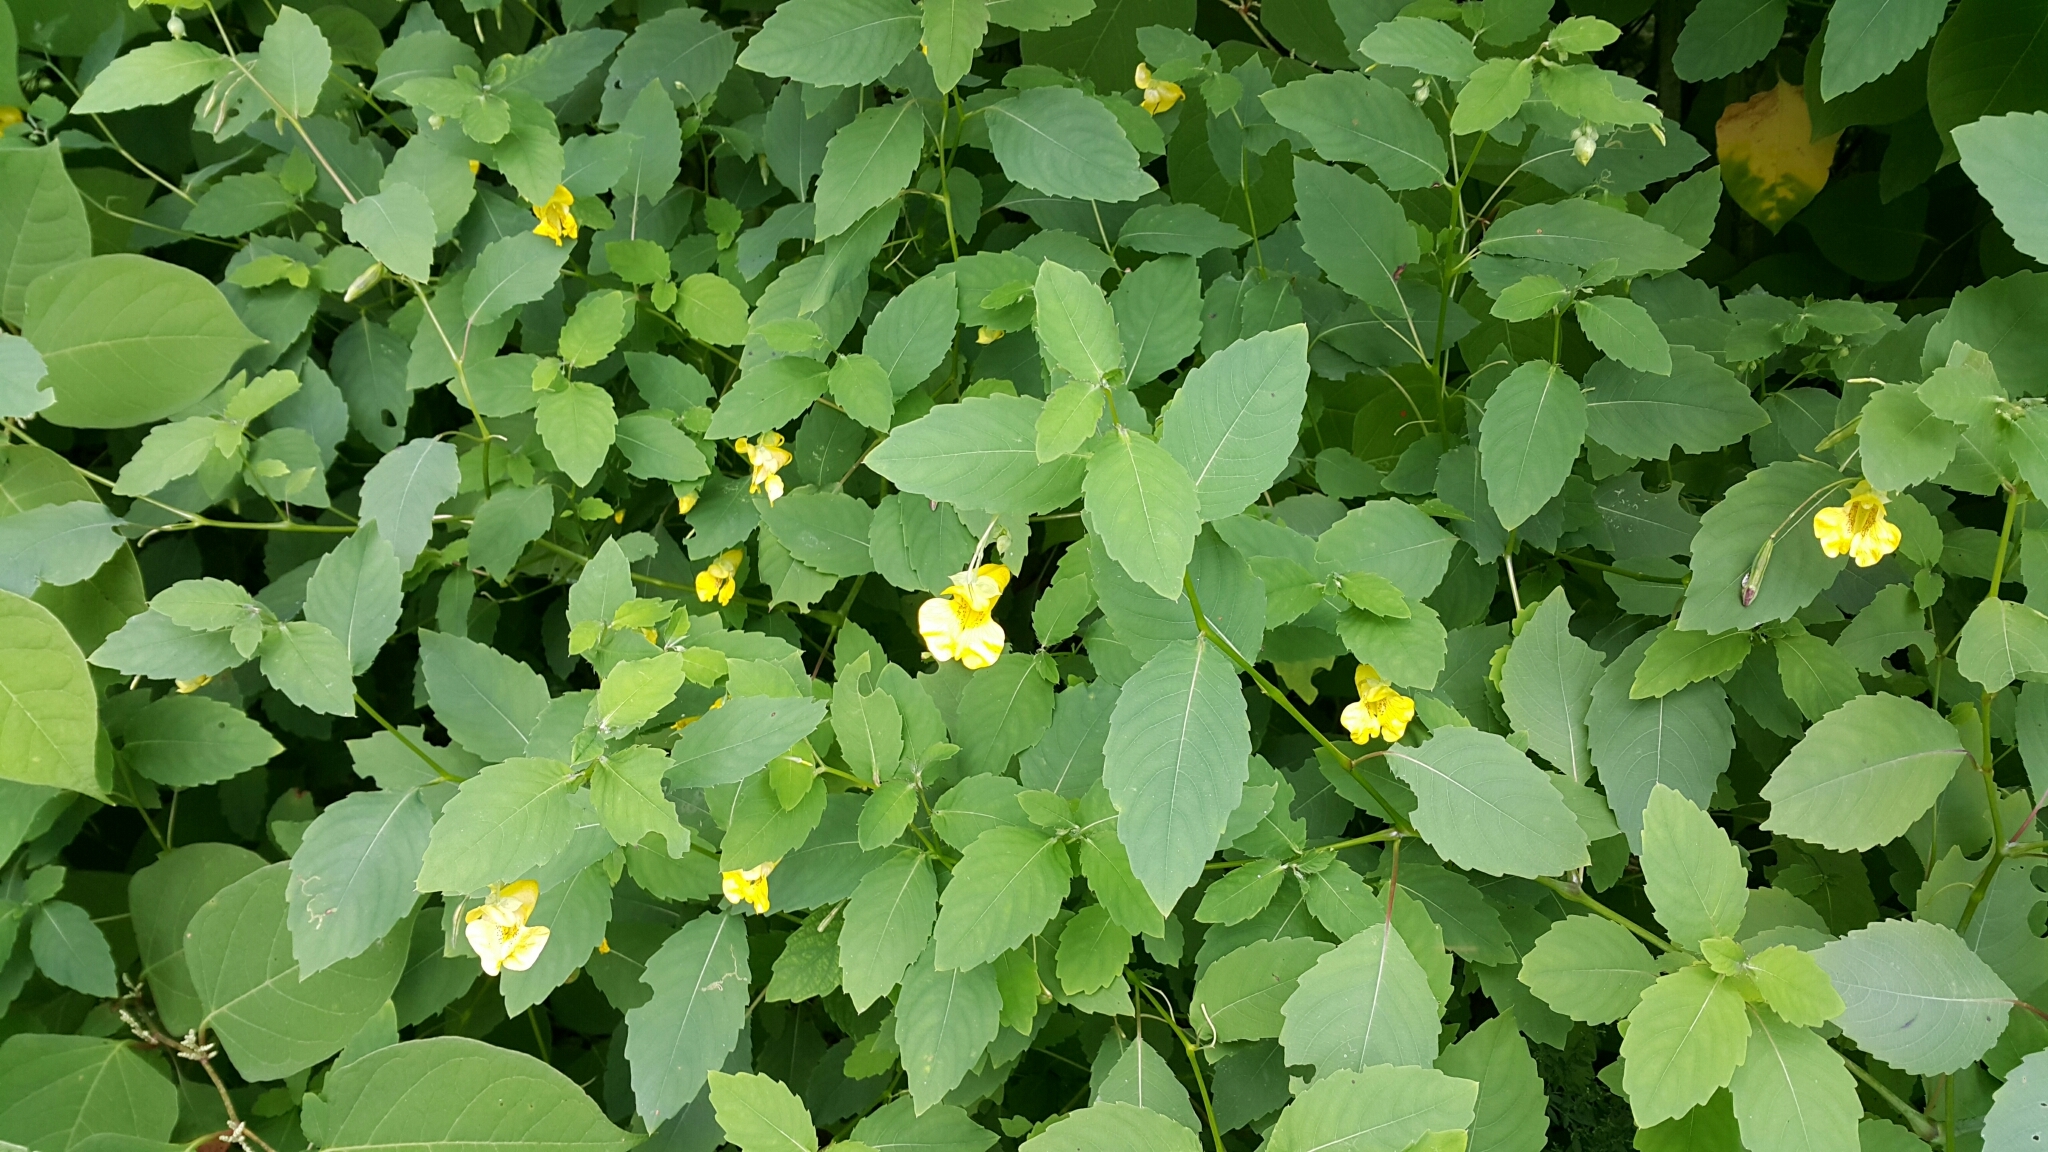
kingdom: Plantae
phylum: Tracheophyta
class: Magnoliopsida
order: Ericales
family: Balsaminaceae
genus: Impatiens
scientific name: Impatiens pallida
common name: Pale snapweed
